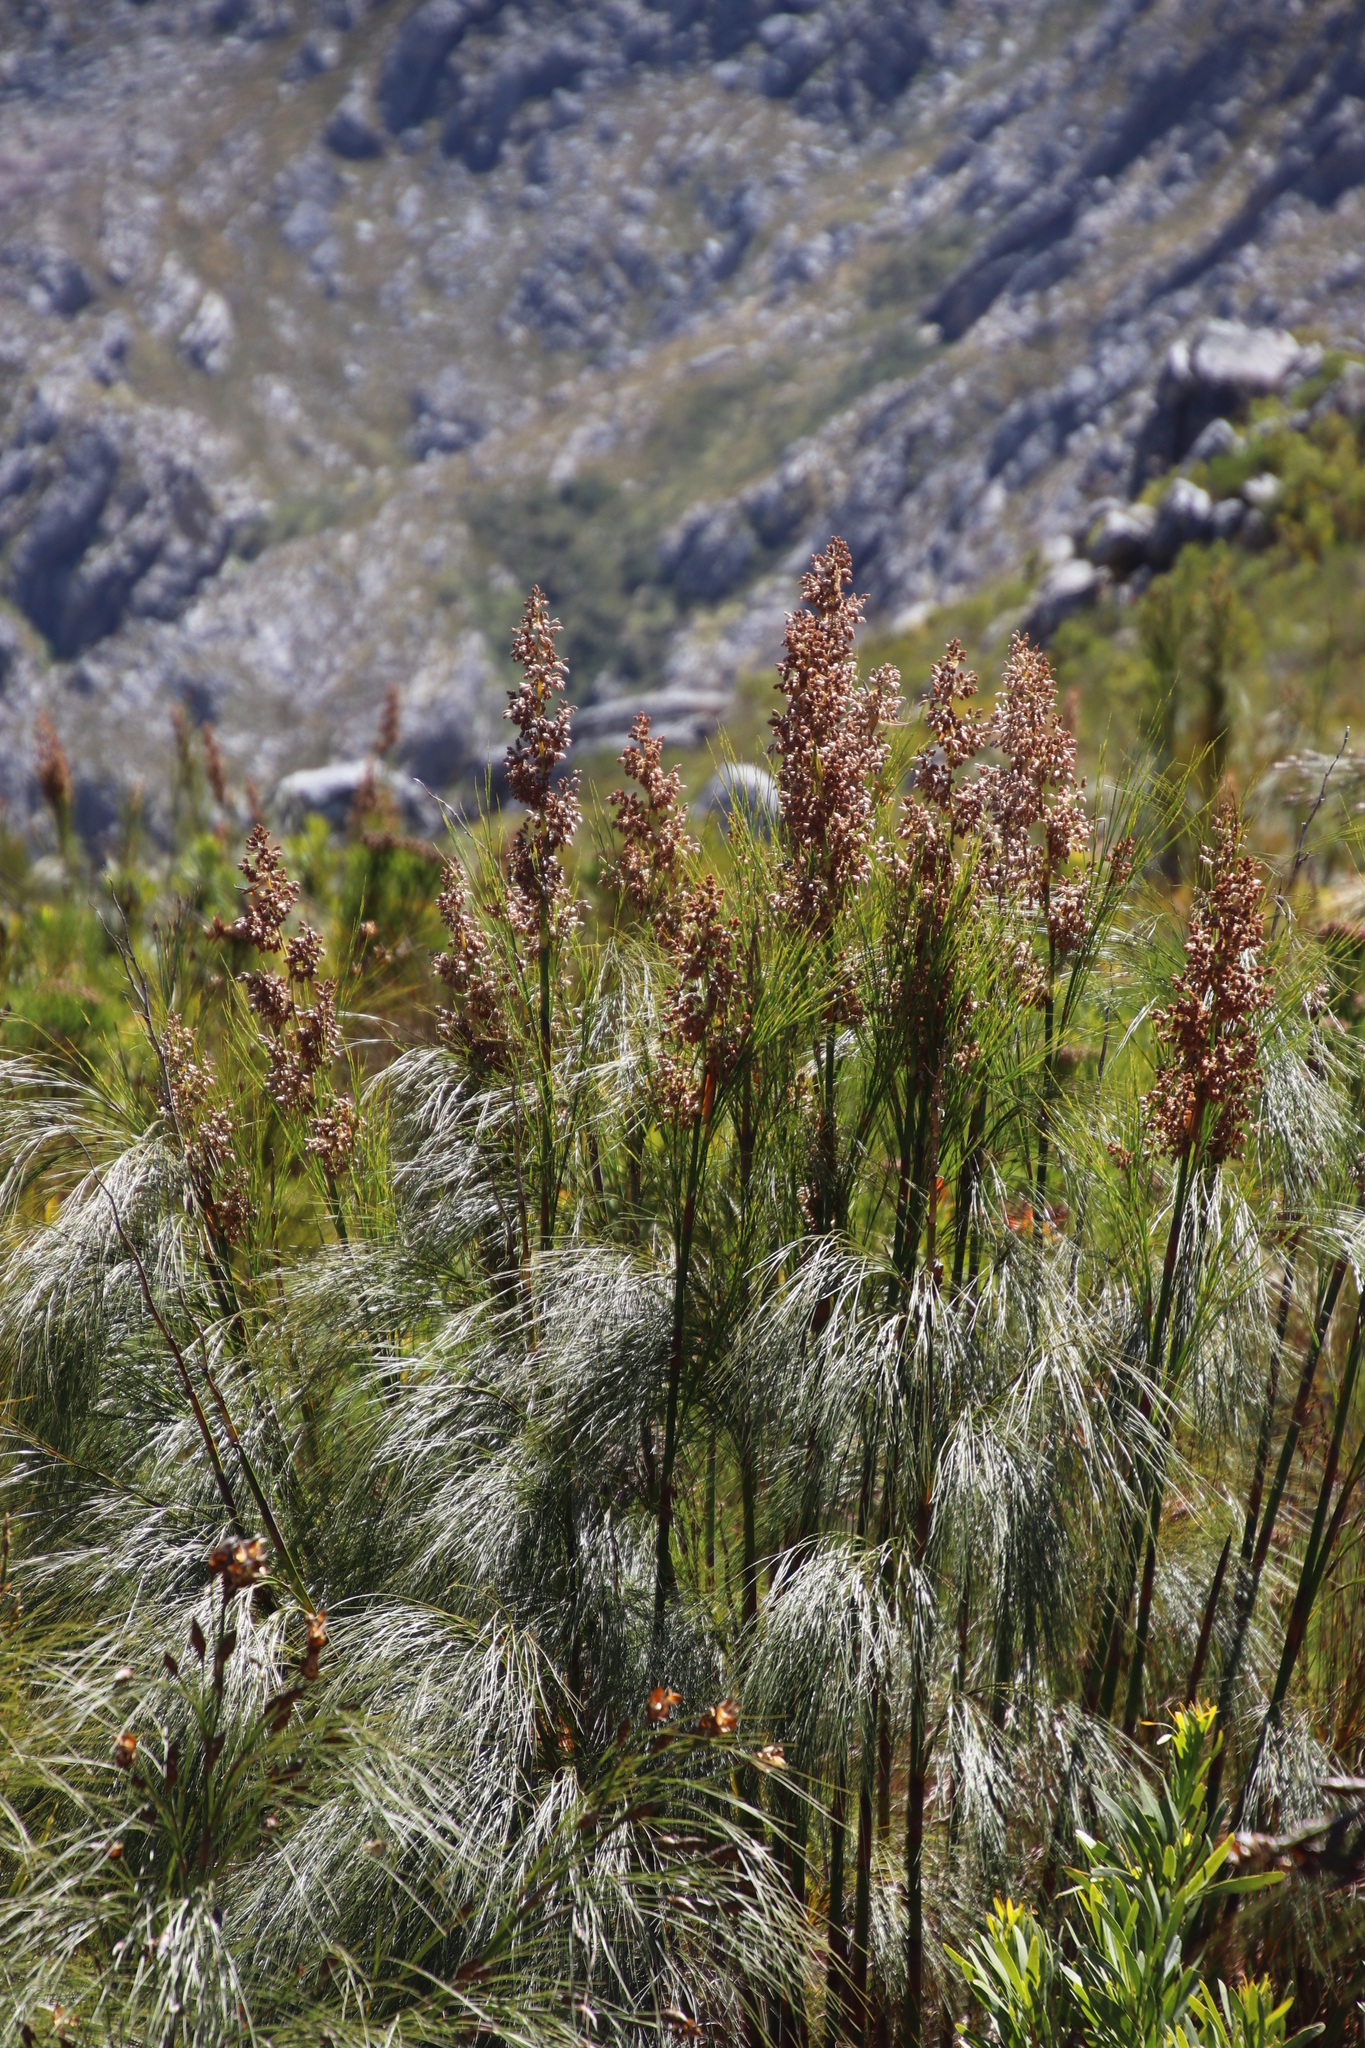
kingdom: Plantae
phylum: Tracheophyta
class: Liliopsida
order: Poales
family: Restionaceae
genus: Cannomois
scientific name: Cannomois grandis
